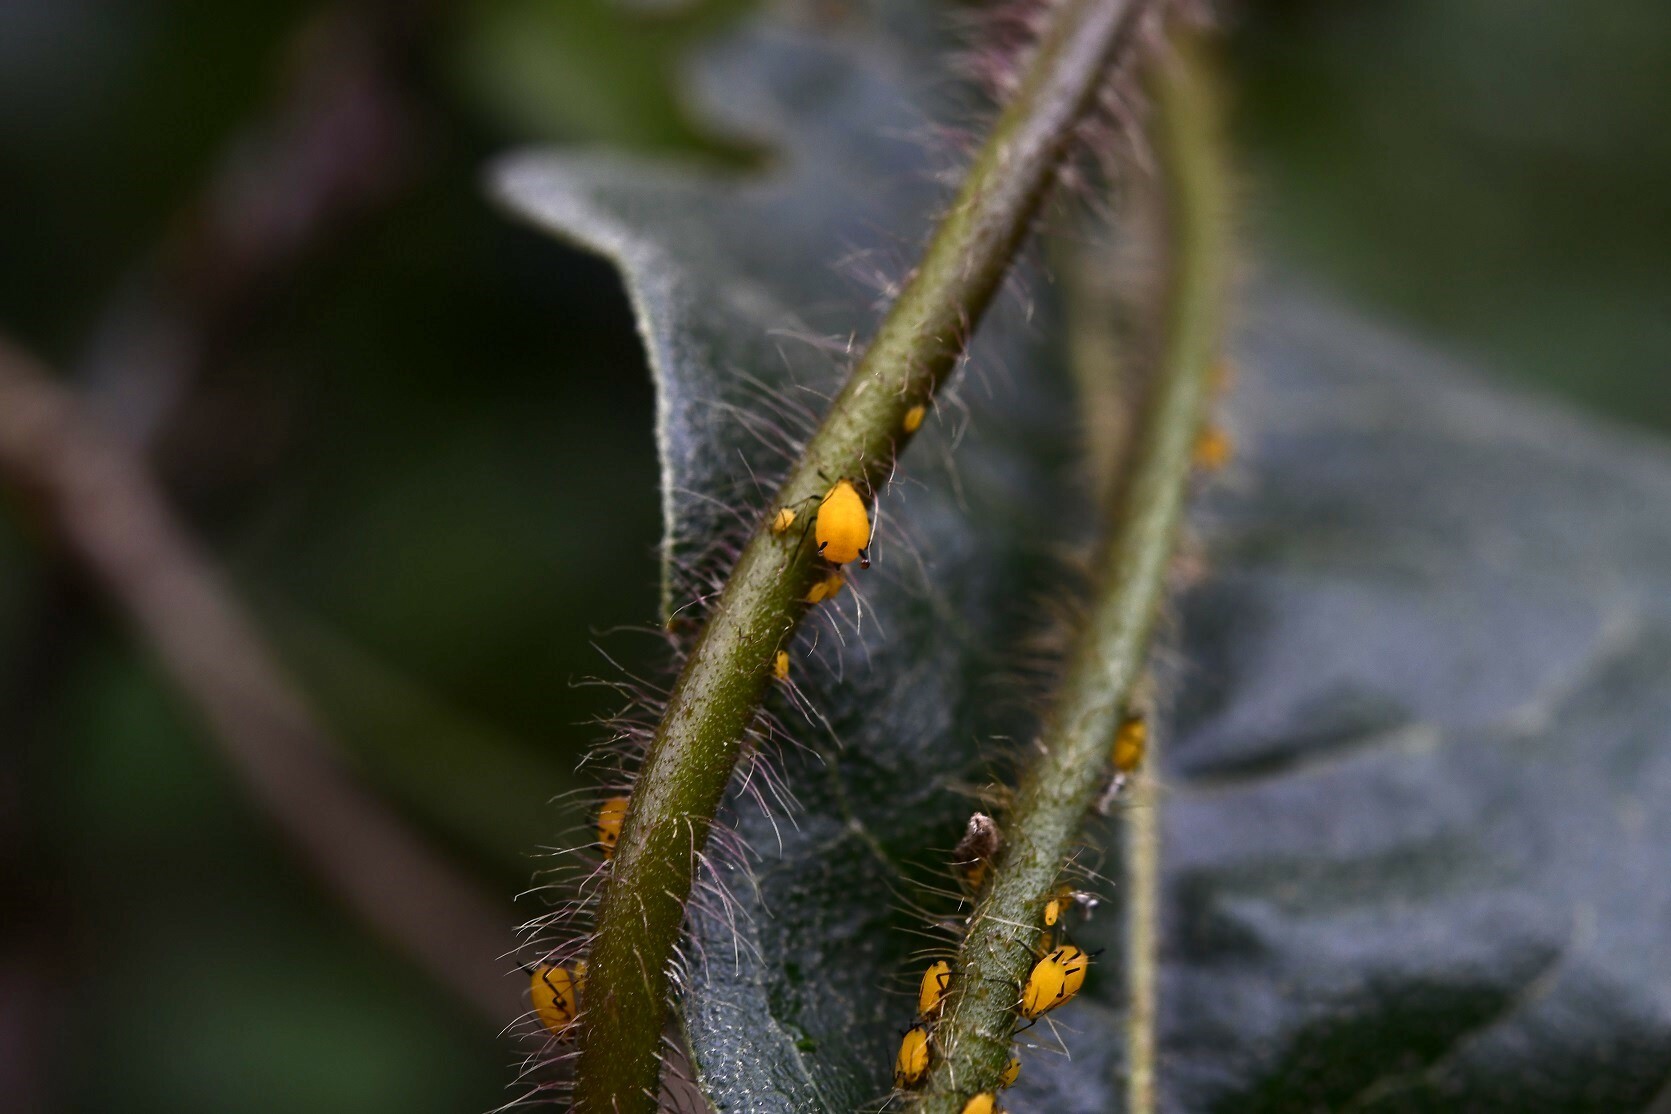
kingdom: Animalia
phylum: Arthropoda
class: Insecta
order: Hemiptera
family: Aphididae
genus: Aphis
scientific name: Aphis nerii
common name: Oleander aphid
